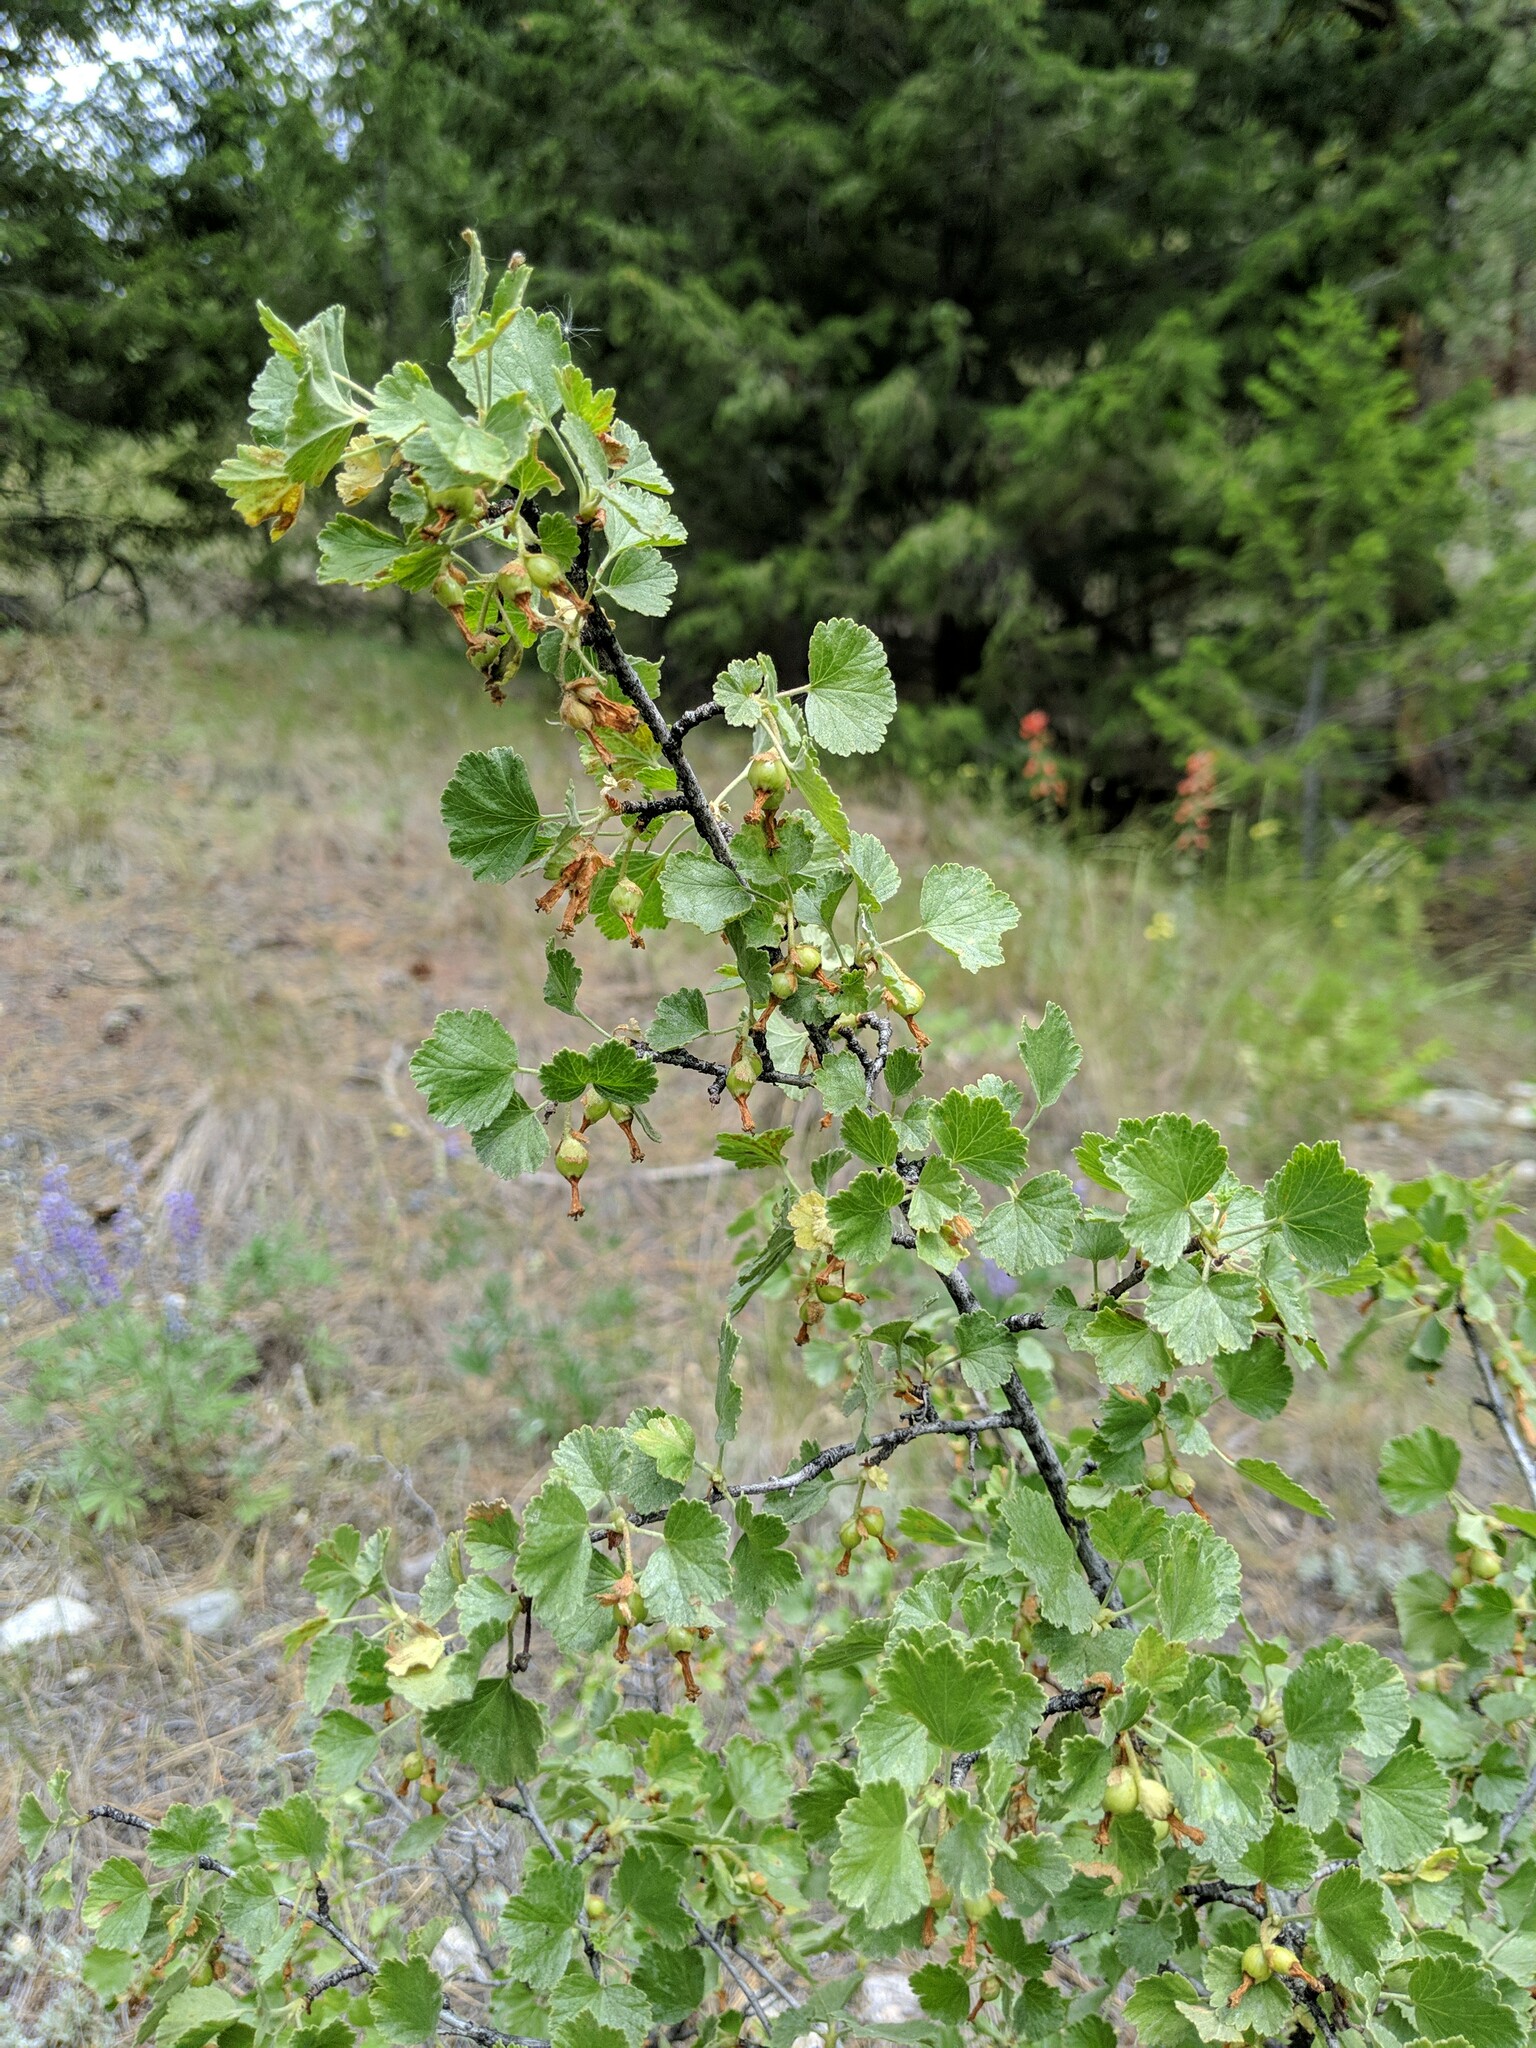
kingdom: Plantae
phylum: Tracheophyta
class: Magnoliopsida
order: Saxifragales
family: Grossulariaceae
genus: Ribes
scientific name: Ribes cereum
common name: Wax currant
